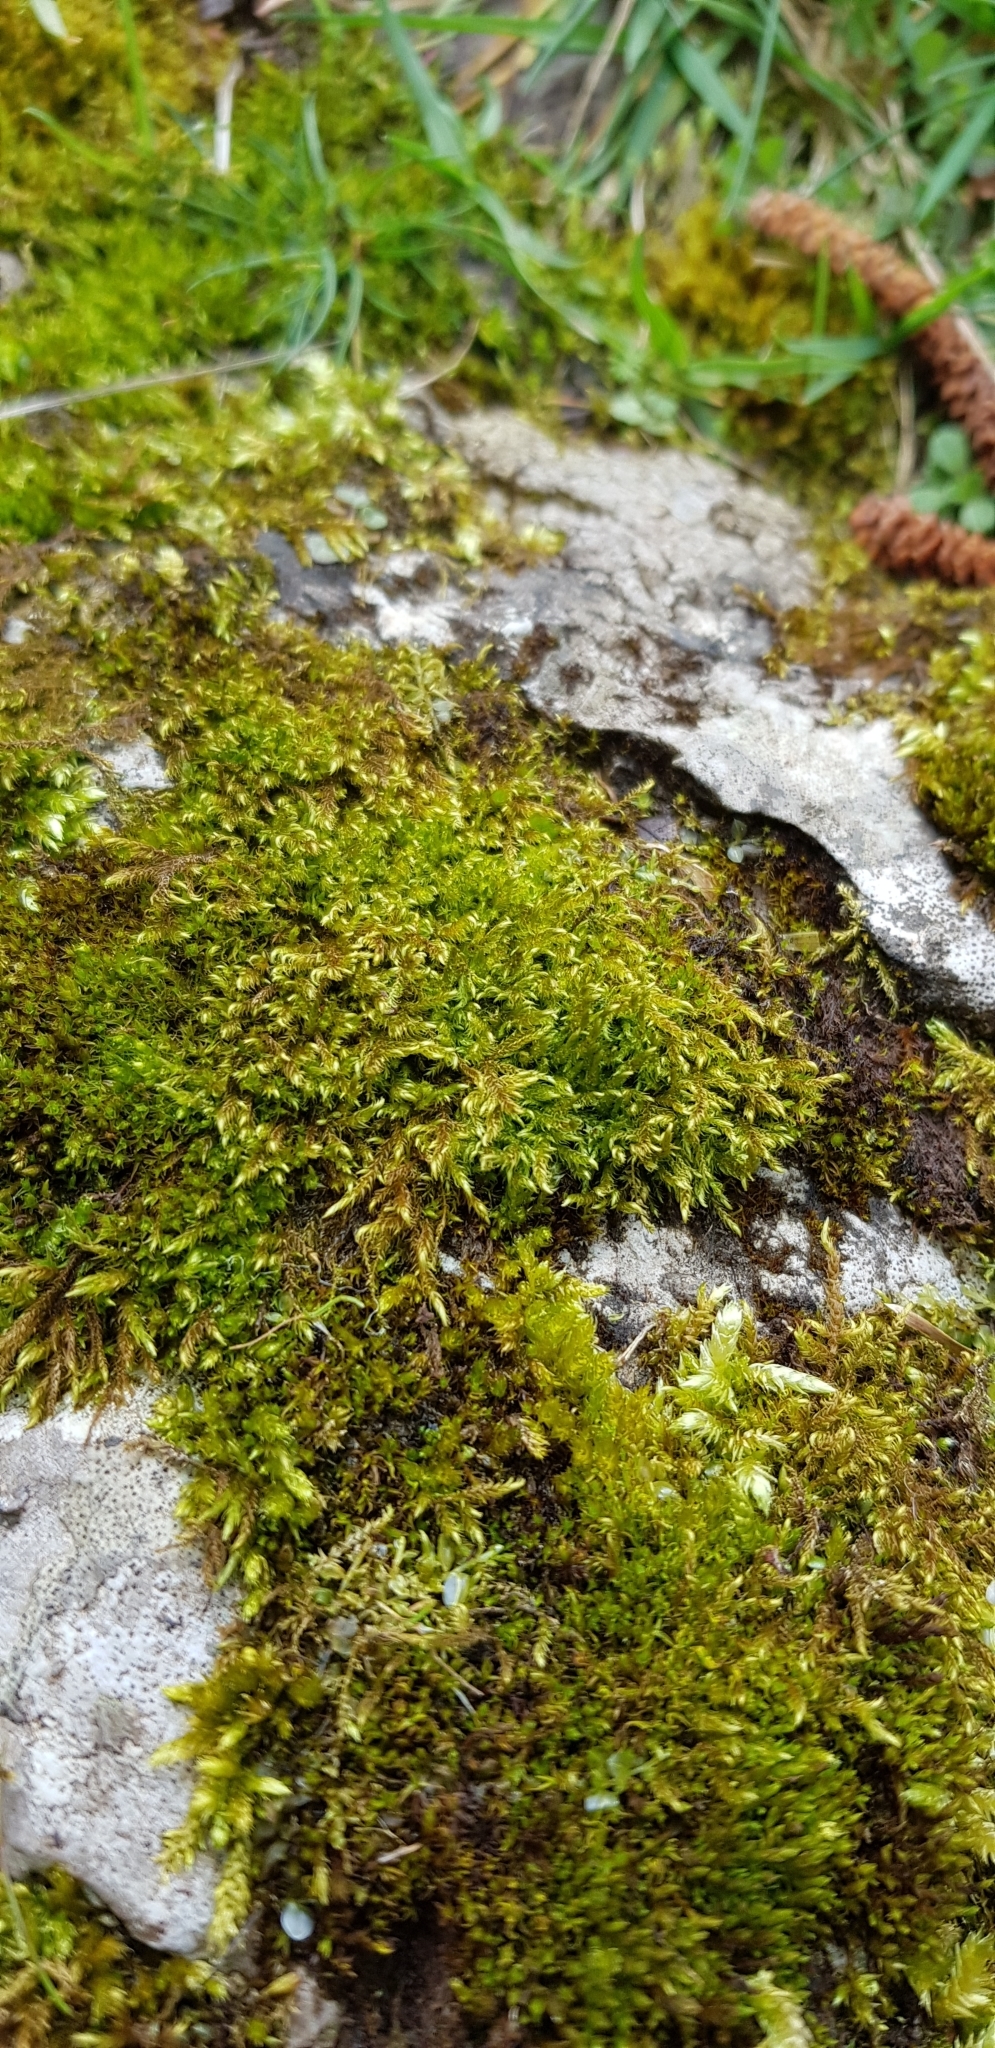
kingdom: Plantae
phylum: Bryophyta
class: Bryopsida
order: Hypnales
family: Amblystegiaceae
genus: Cratoneuron
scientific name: Cratoneuron filicinum
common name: Fern-leaved hook moss
